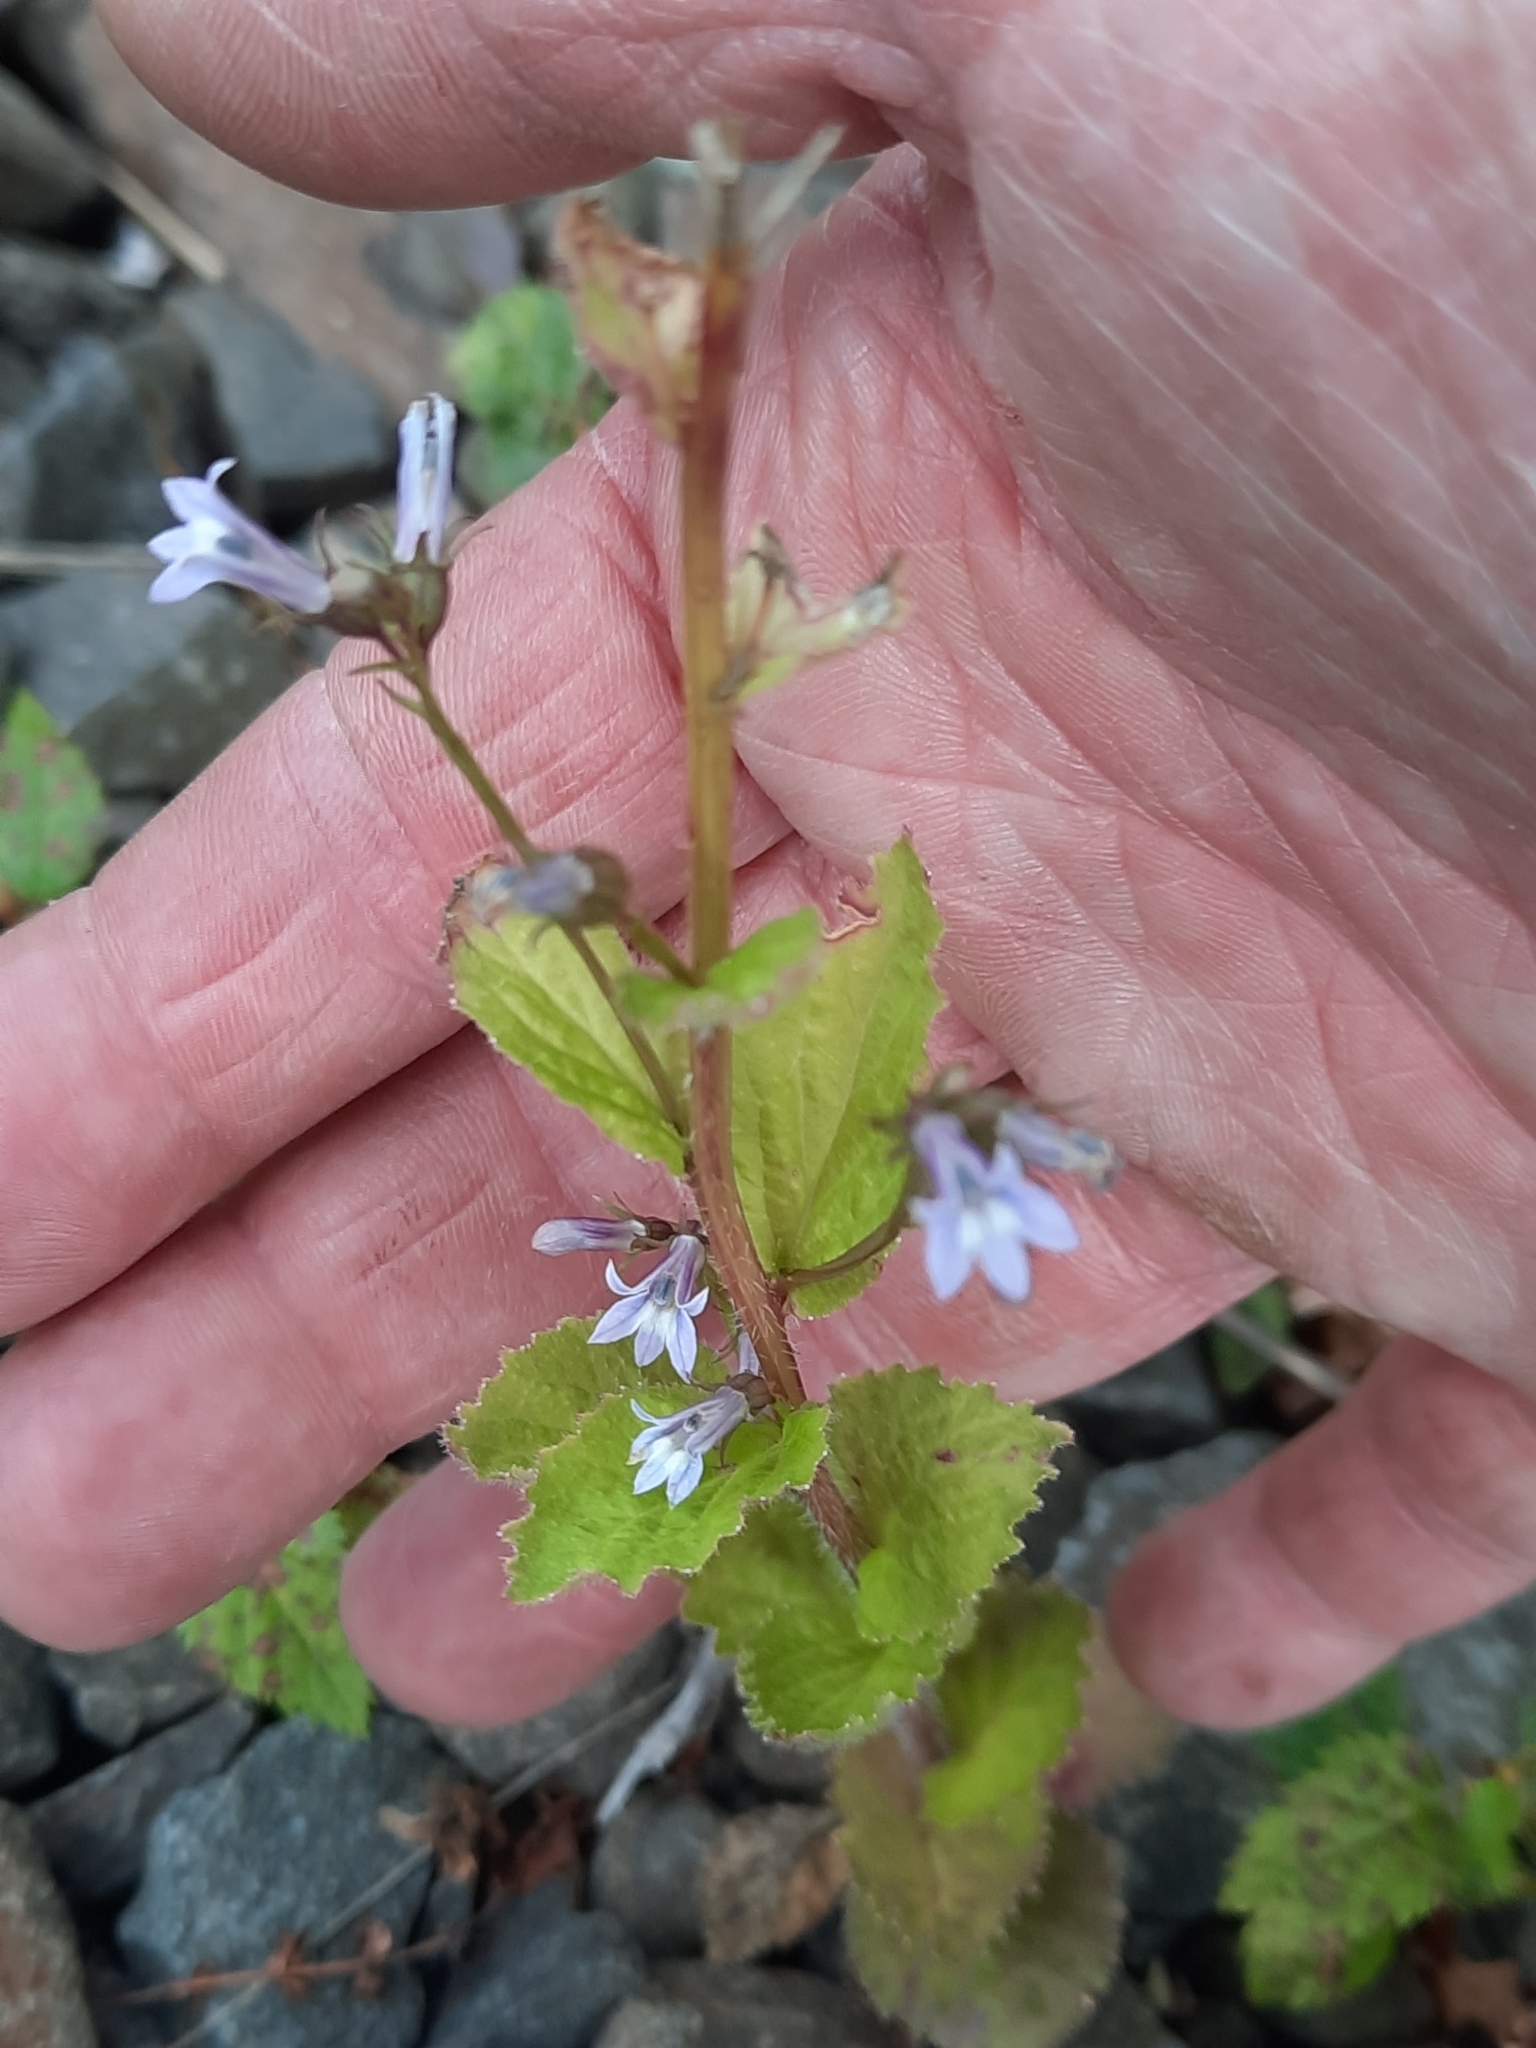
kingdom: Plantae
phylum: Tracheophyta
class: Magnoliopsida
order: Asterales
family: Campanulaceae
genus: Lobelia
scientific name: Lobelia inflata
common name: Indian tobacco
